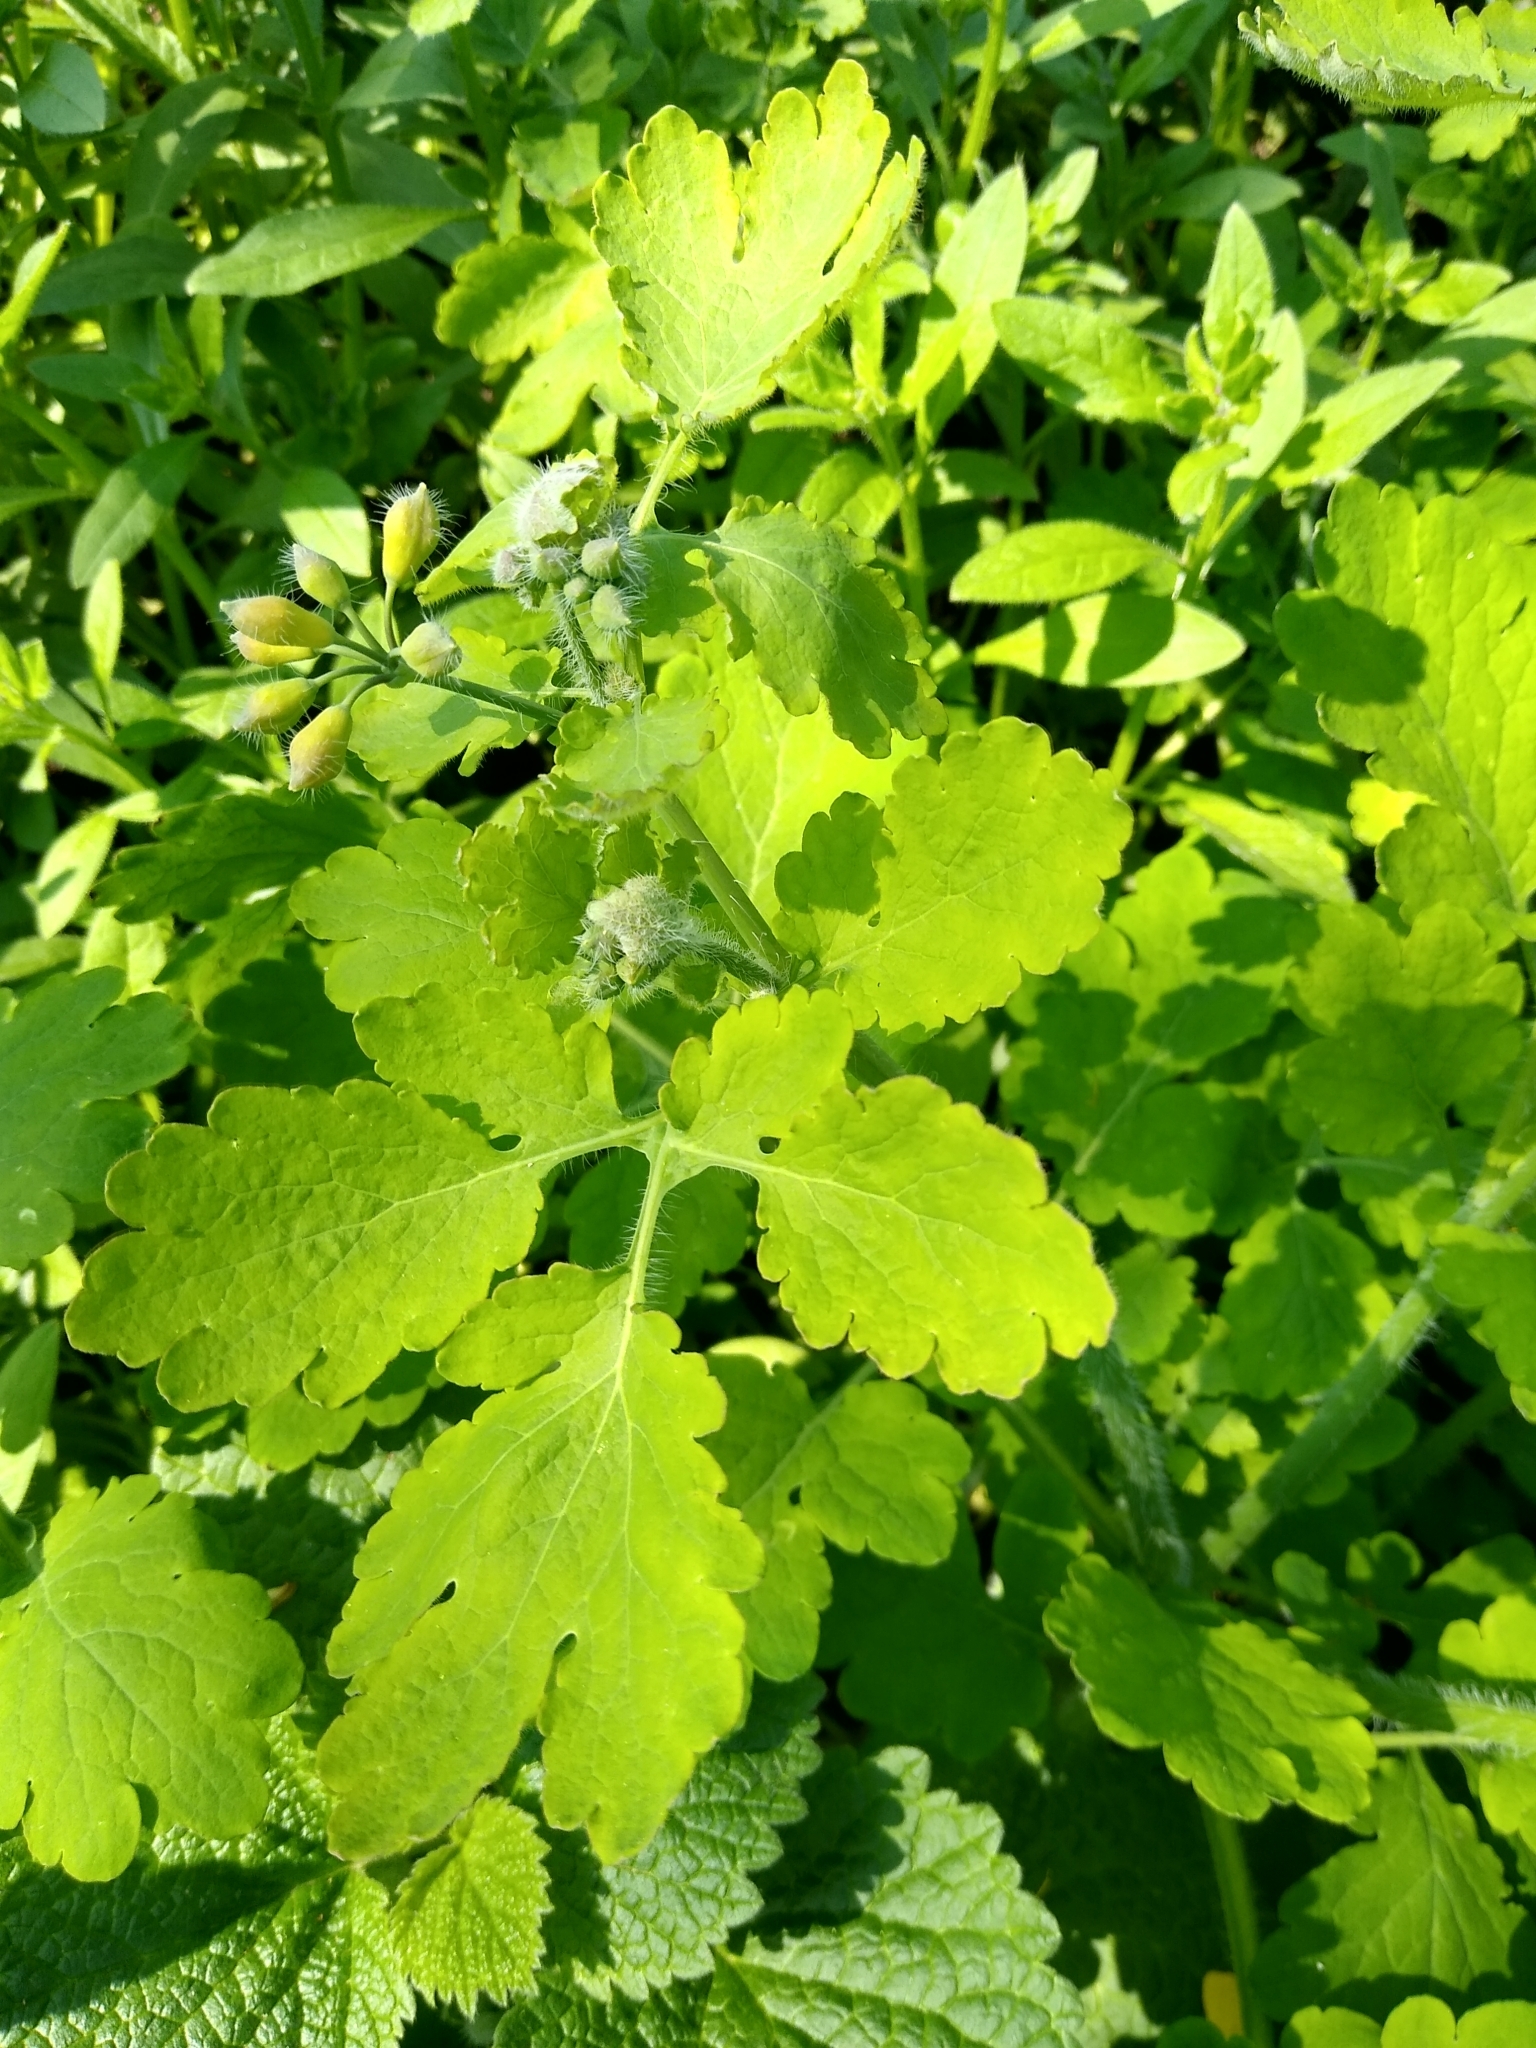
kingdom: Plantae
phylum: Tracheophyta
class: Magnoliopsida
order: Ranunculales
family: Papaveraceae
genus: Chelidonium
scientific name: Chelidonium majus
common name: Greater celandine
